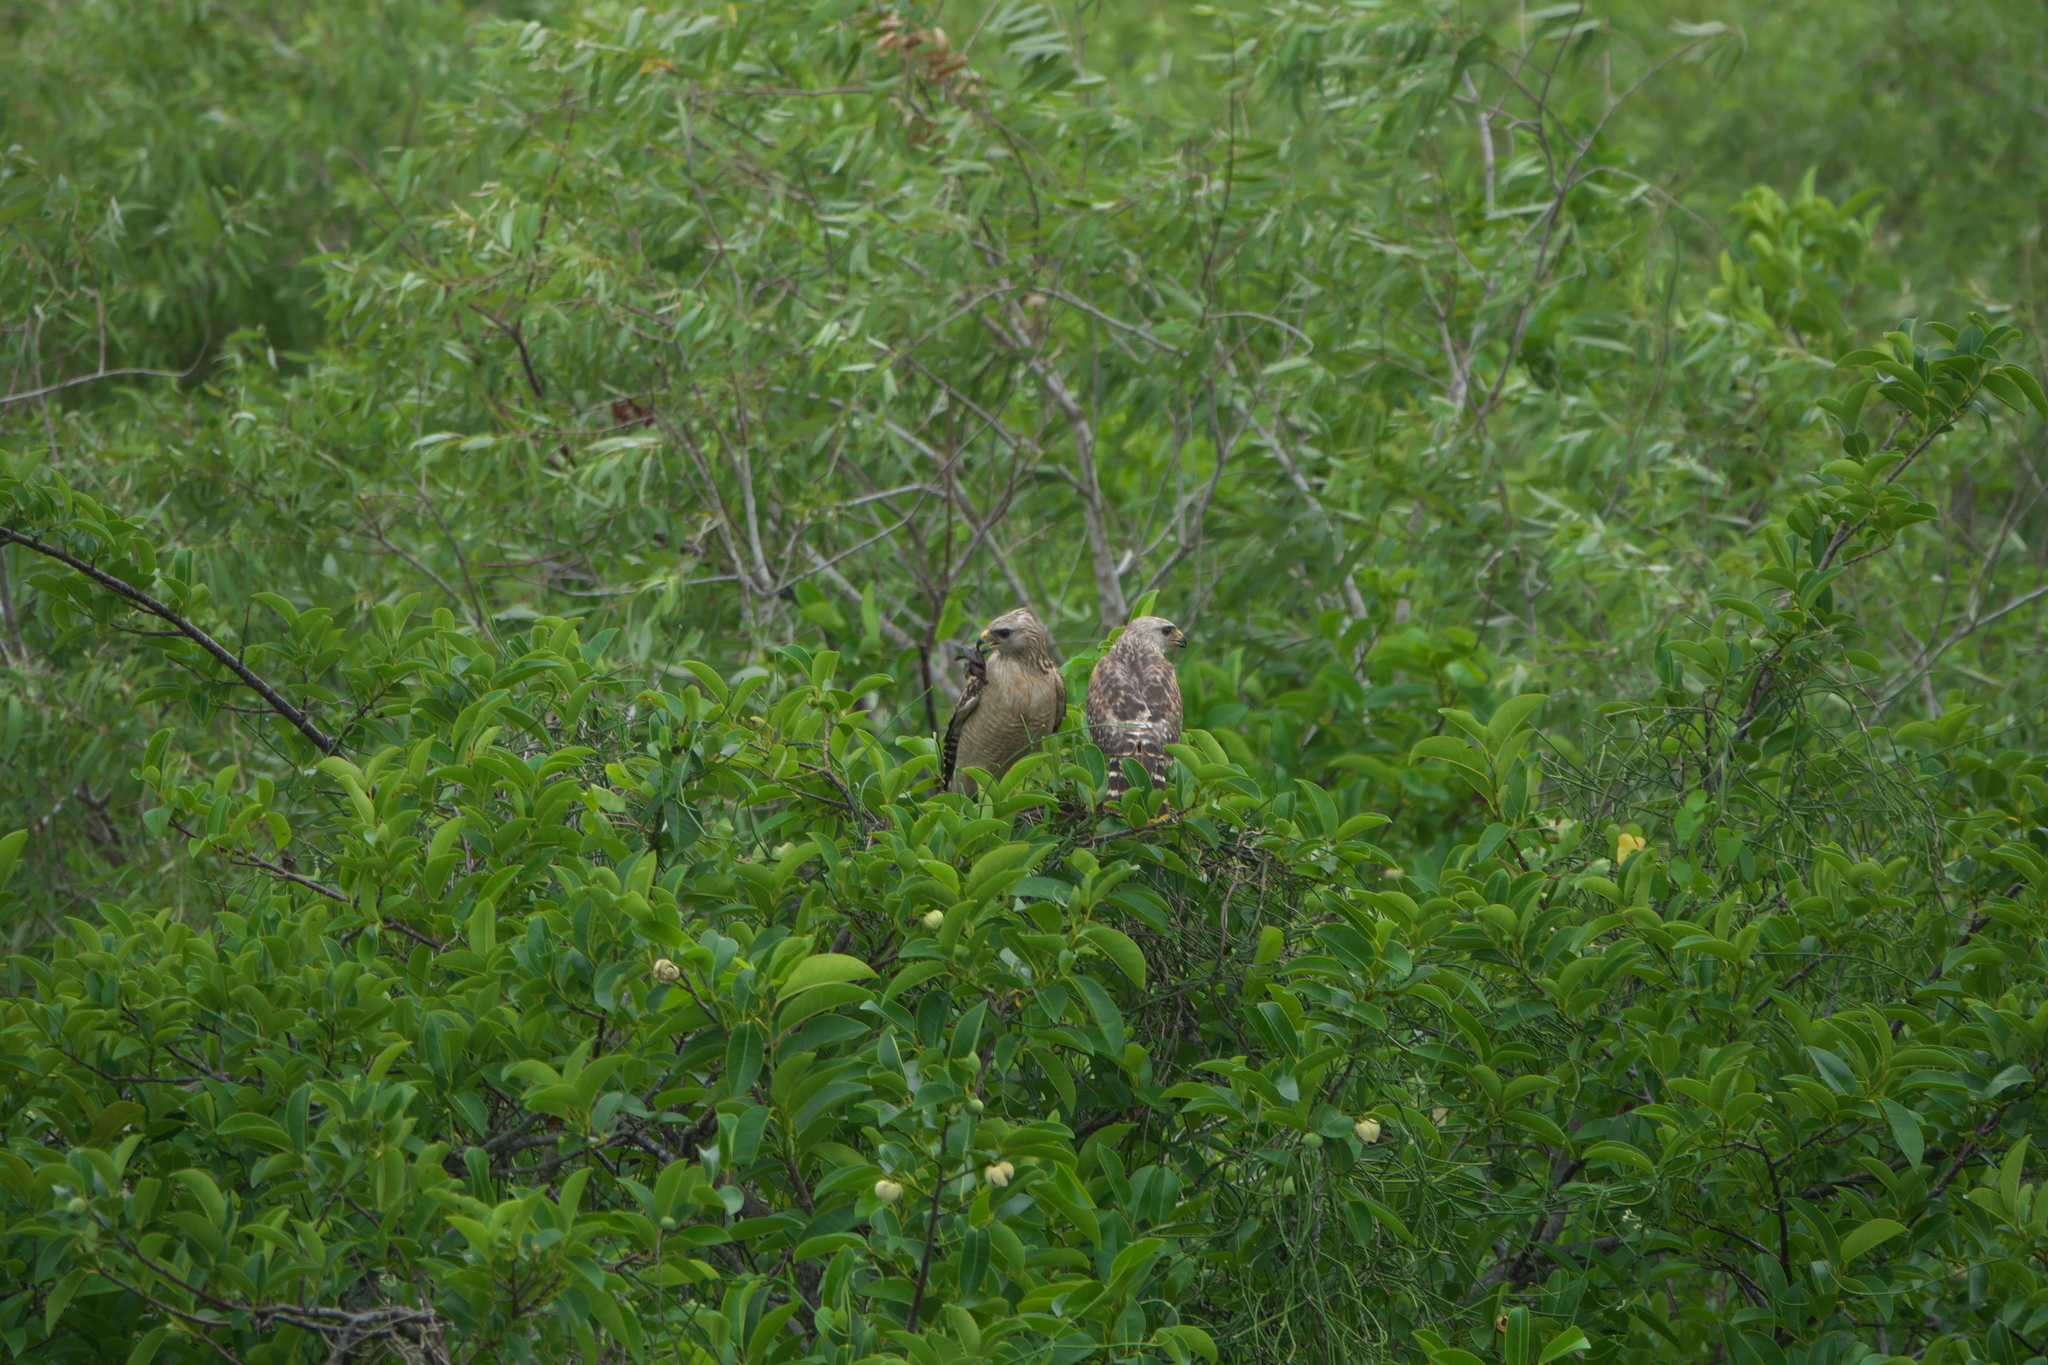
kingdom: Animalia
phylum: Chordata
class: Aves
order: Accipitriformes
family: Accipitridae
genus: Buteo
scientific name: Buteo lineatus
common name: Red-shouldered hawk
